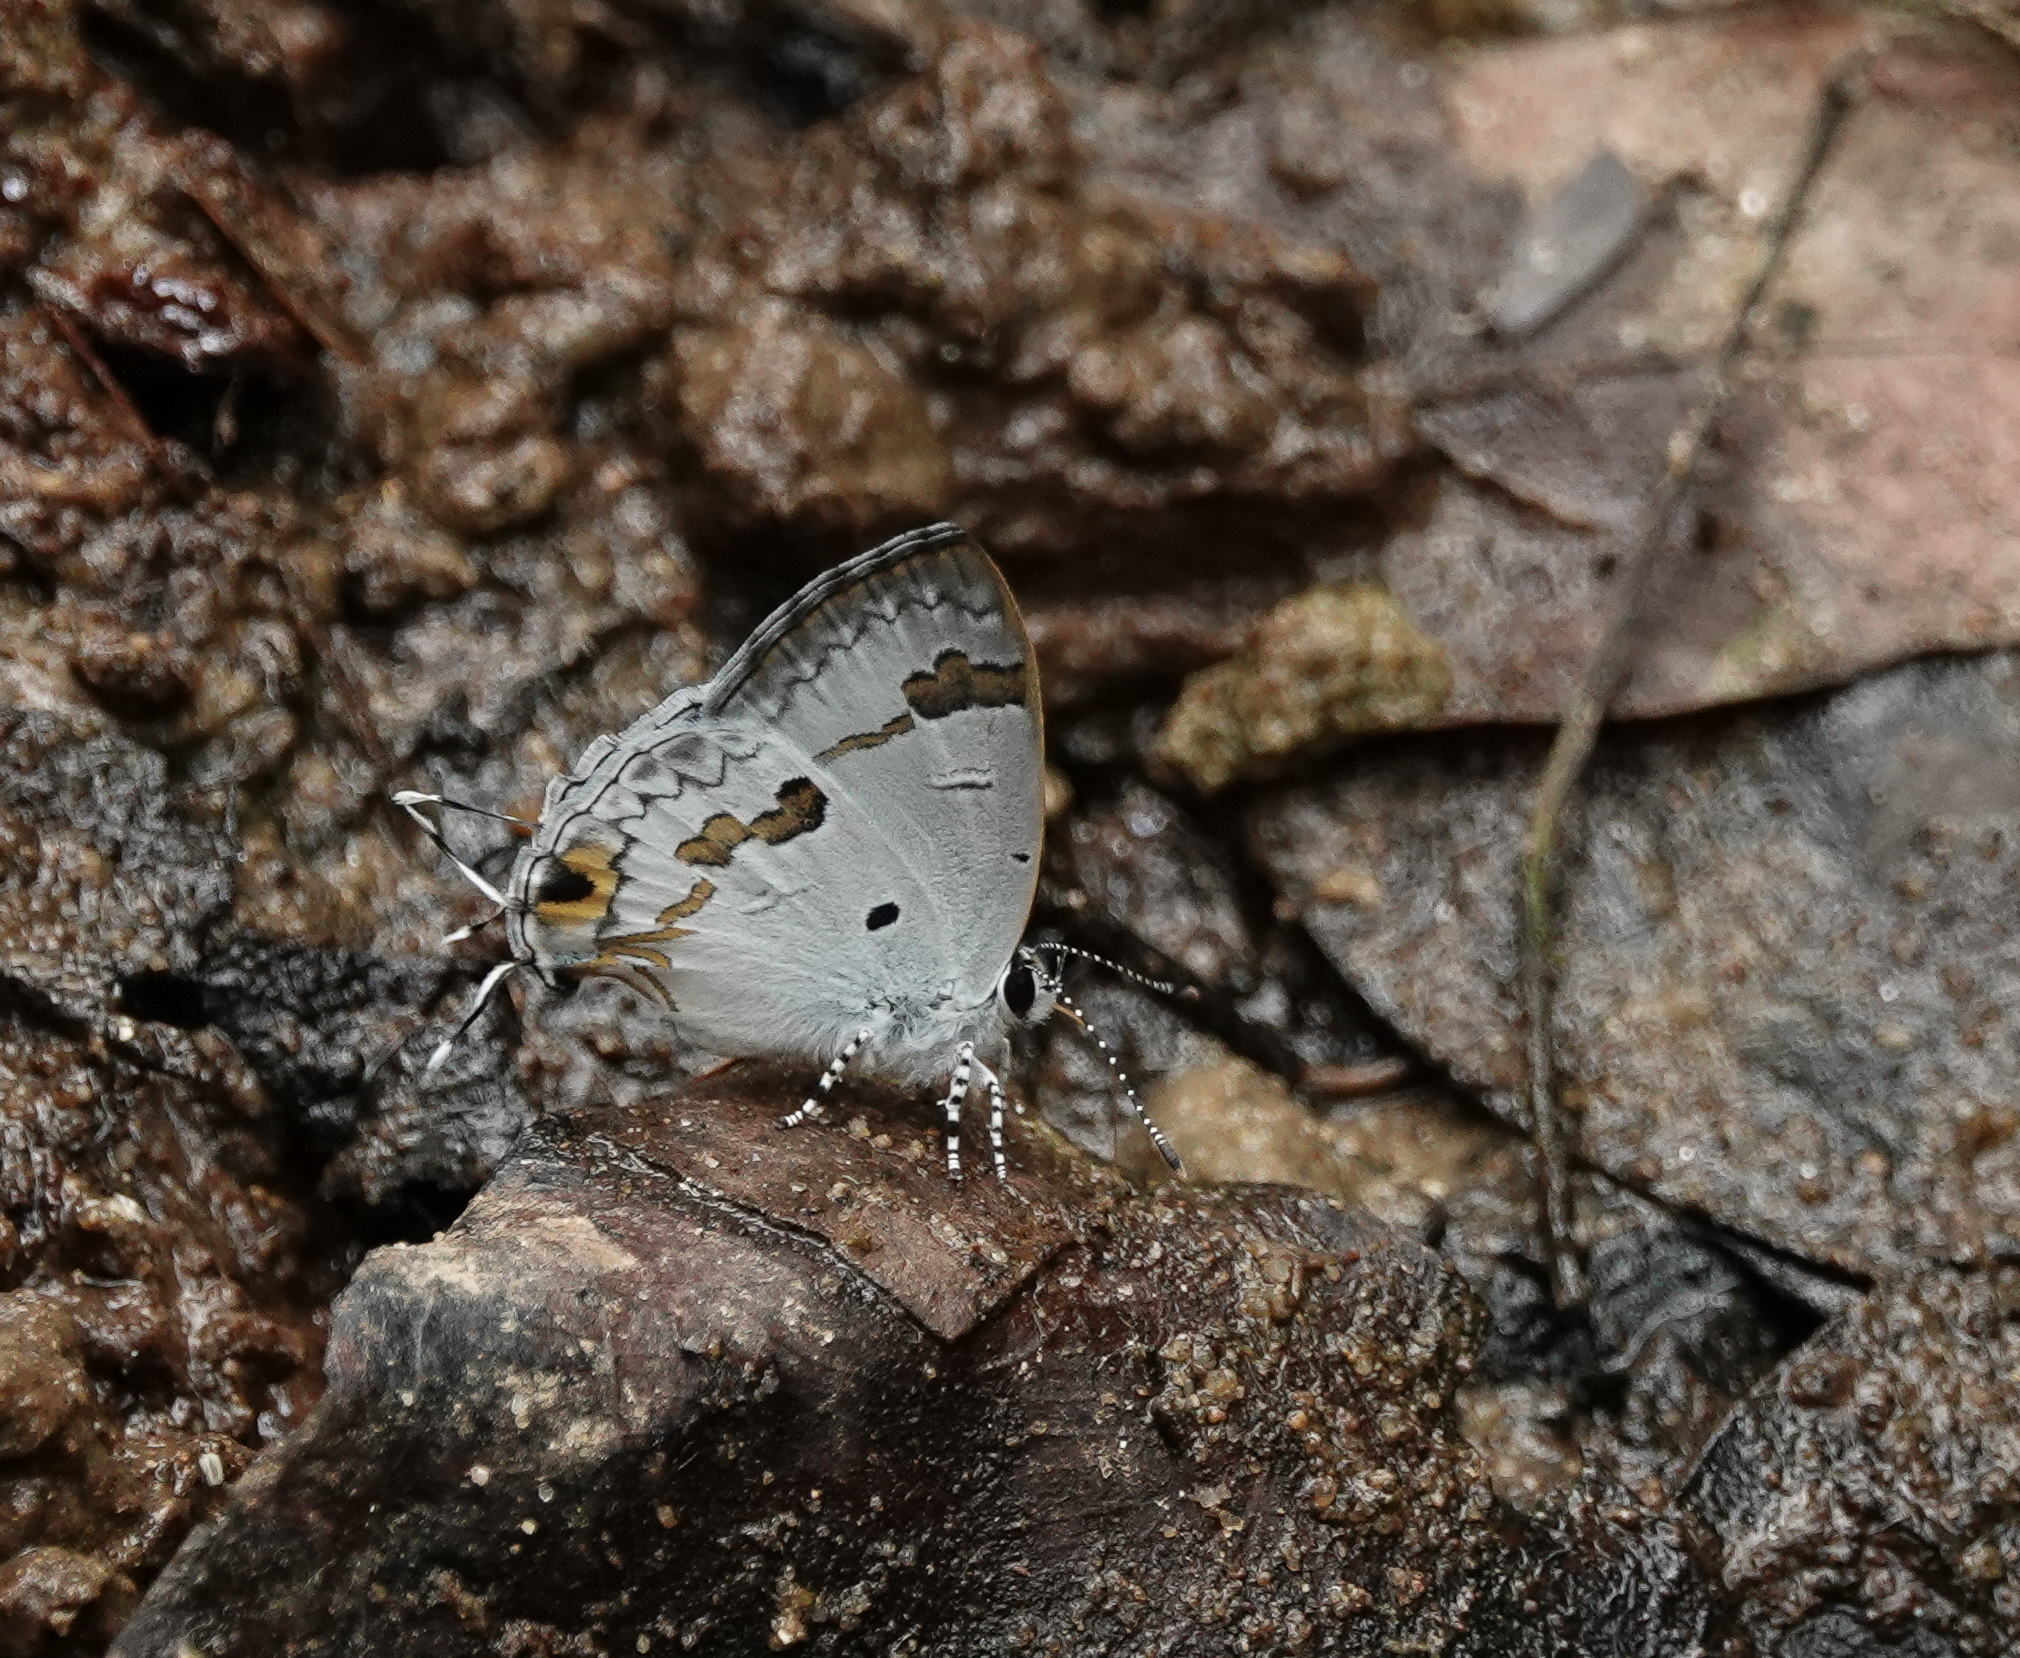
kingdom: Animalia
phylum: Arthropoda
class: Insecta
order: Lepidoptera
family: Lycaenidae
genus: Chliaria
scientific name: Chliaria othona
